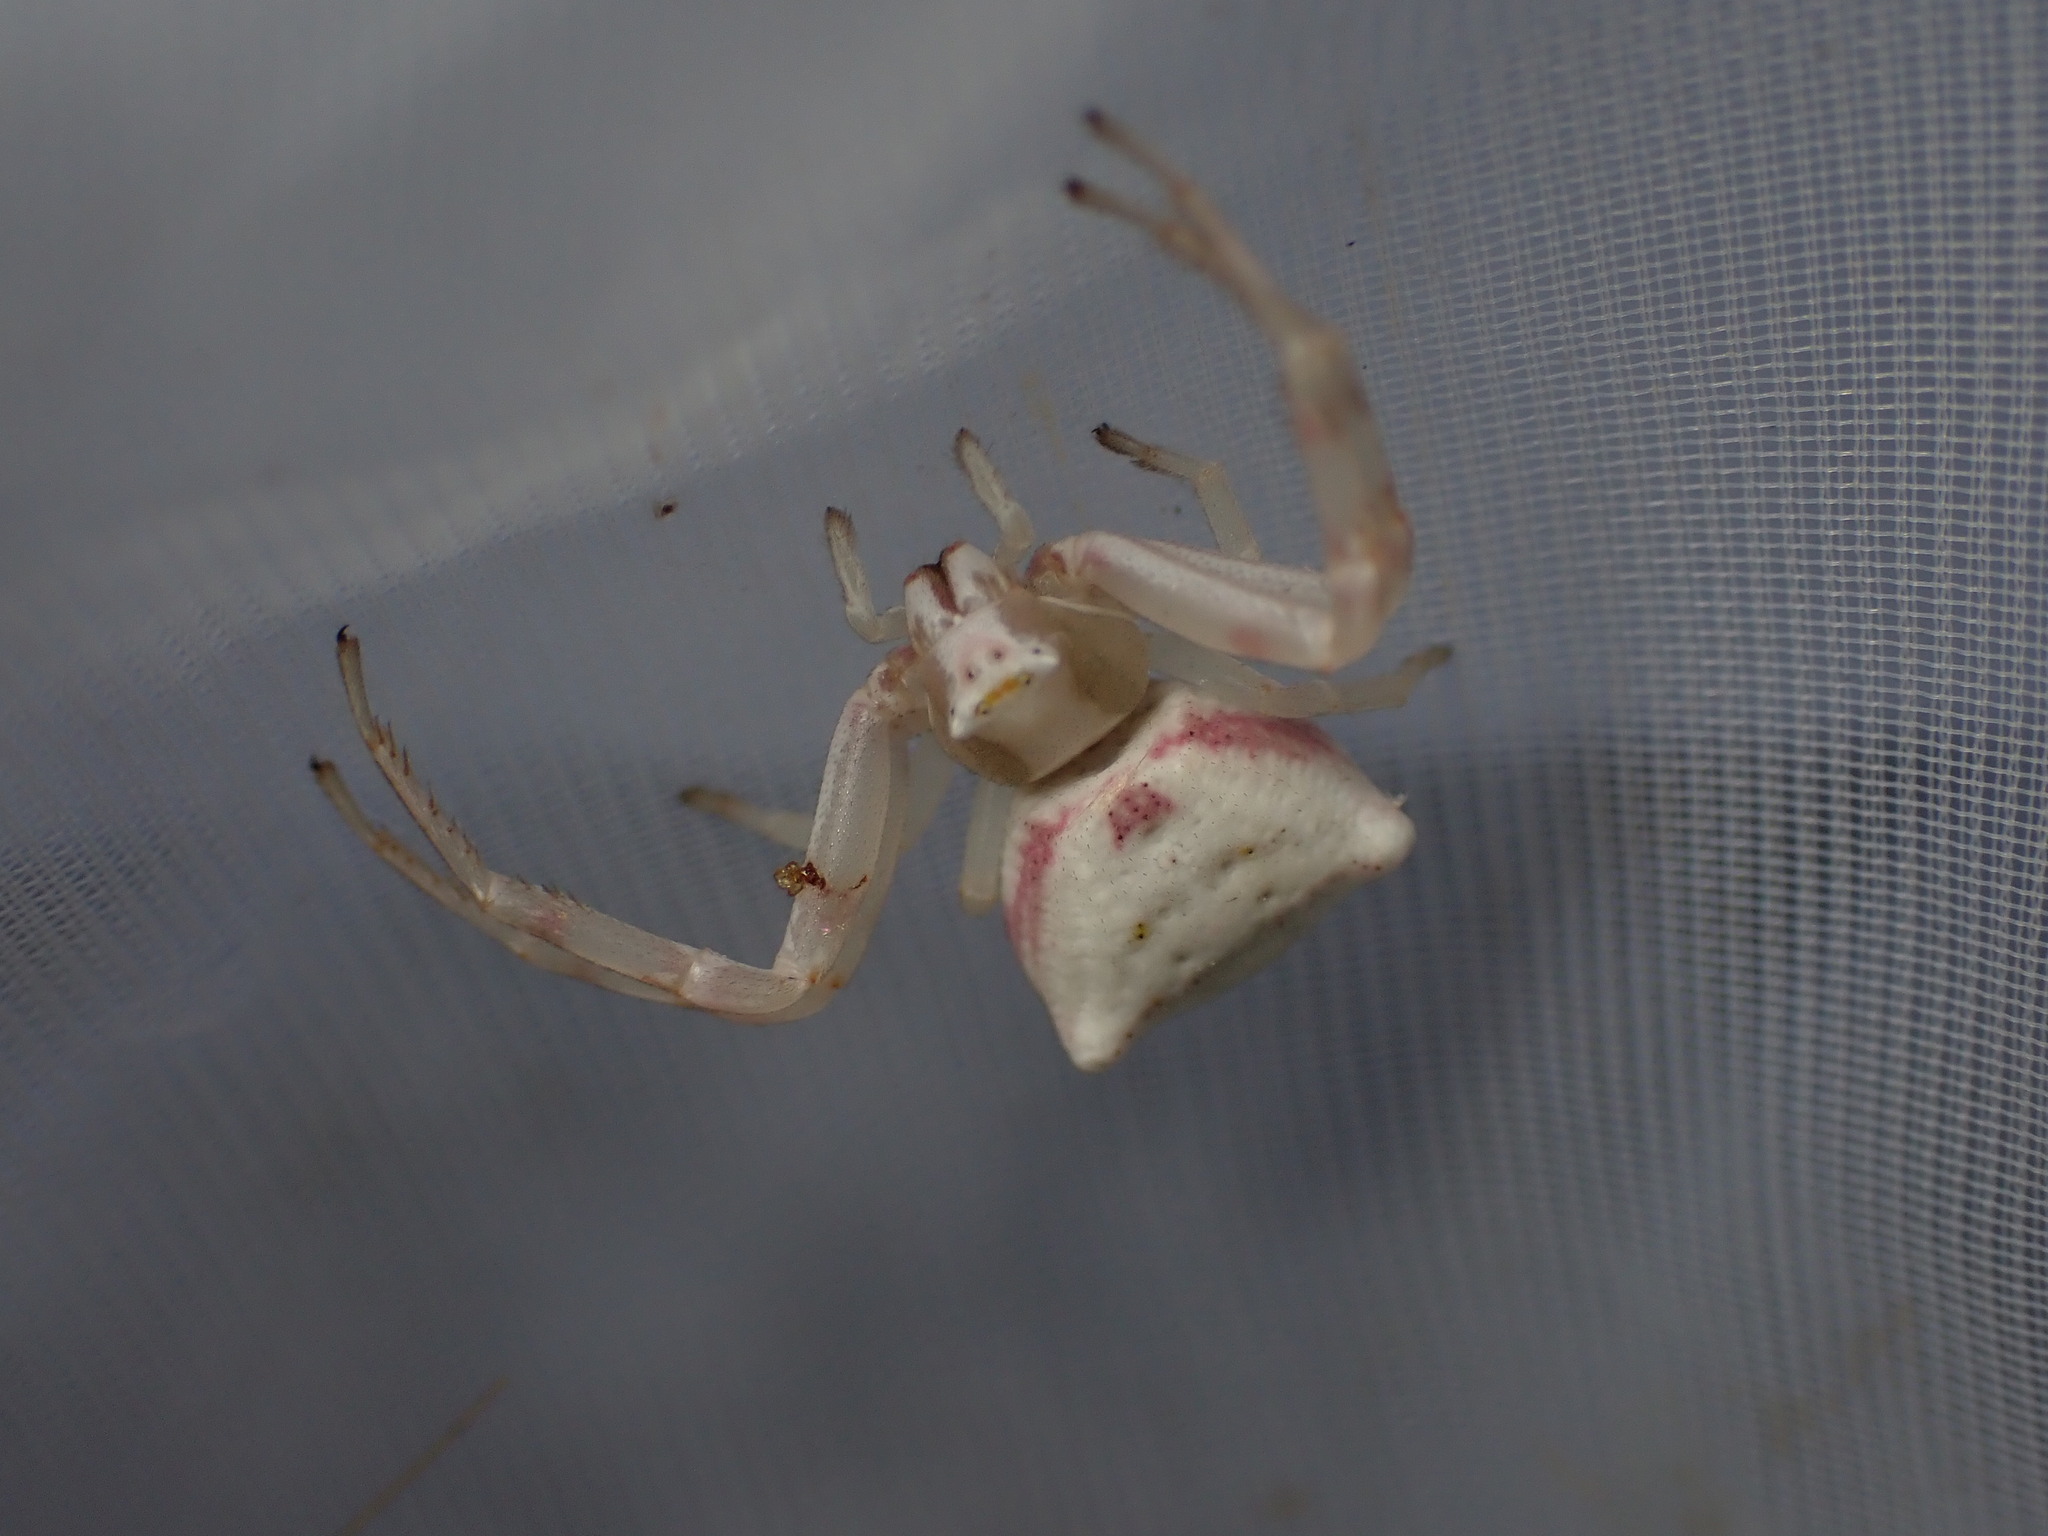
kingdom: Animalia
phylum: Arthropoda
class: Arachnida
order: Araneae
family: Thomisidae
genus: Thomisus
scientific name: Thomisus onustus
